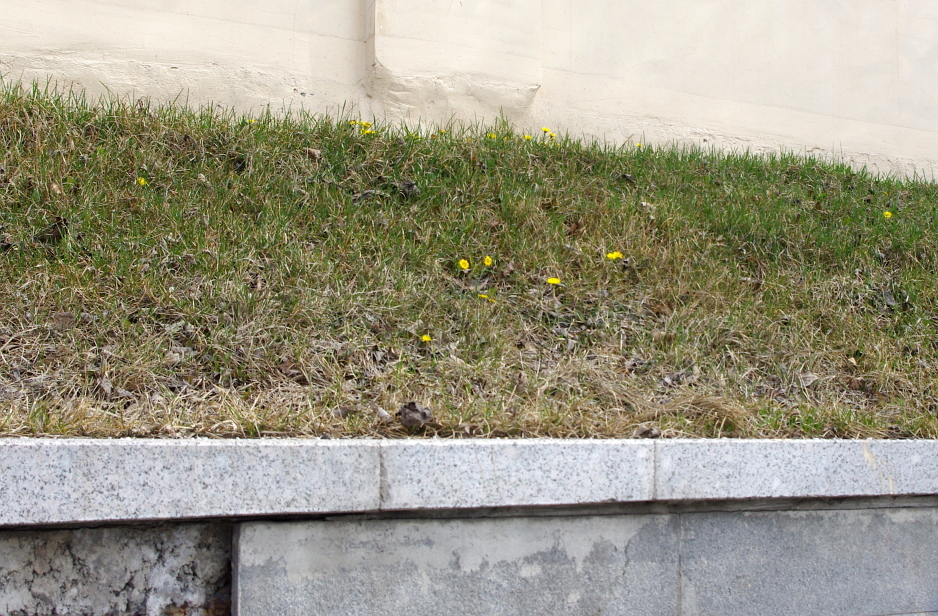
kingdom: Plantae
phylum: Tracheophyta
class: Magnoliopsida
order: Asterales
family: Asteraceae
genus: Tussilago
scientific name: Tussilago farfara
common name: Coltsfoot
